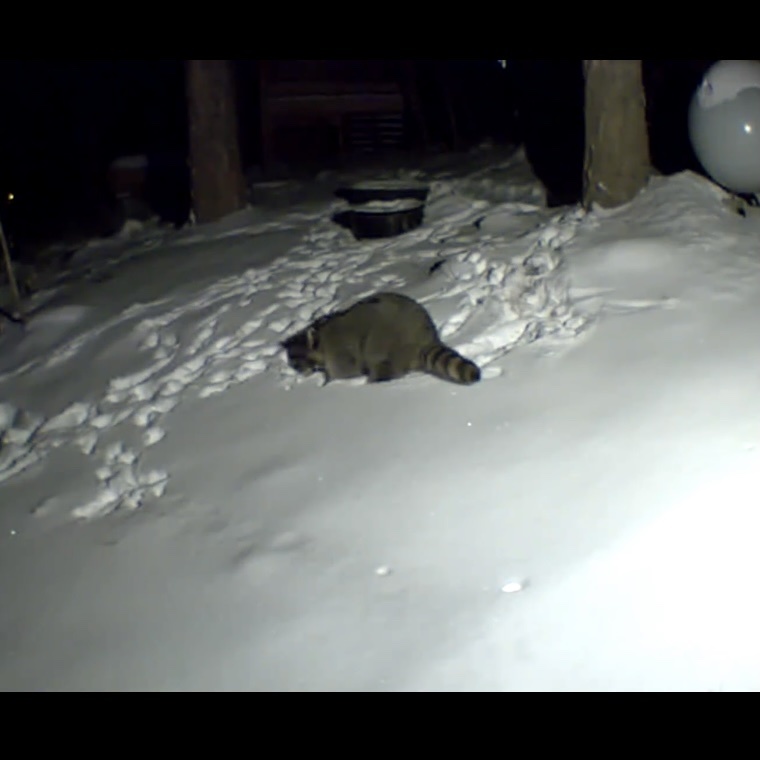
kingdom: Animalia
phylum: Chordata
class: Mammalia
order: Carnivora
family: Procyonidae
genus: Procyon
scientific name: Procyon lotor
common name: Raccoon
